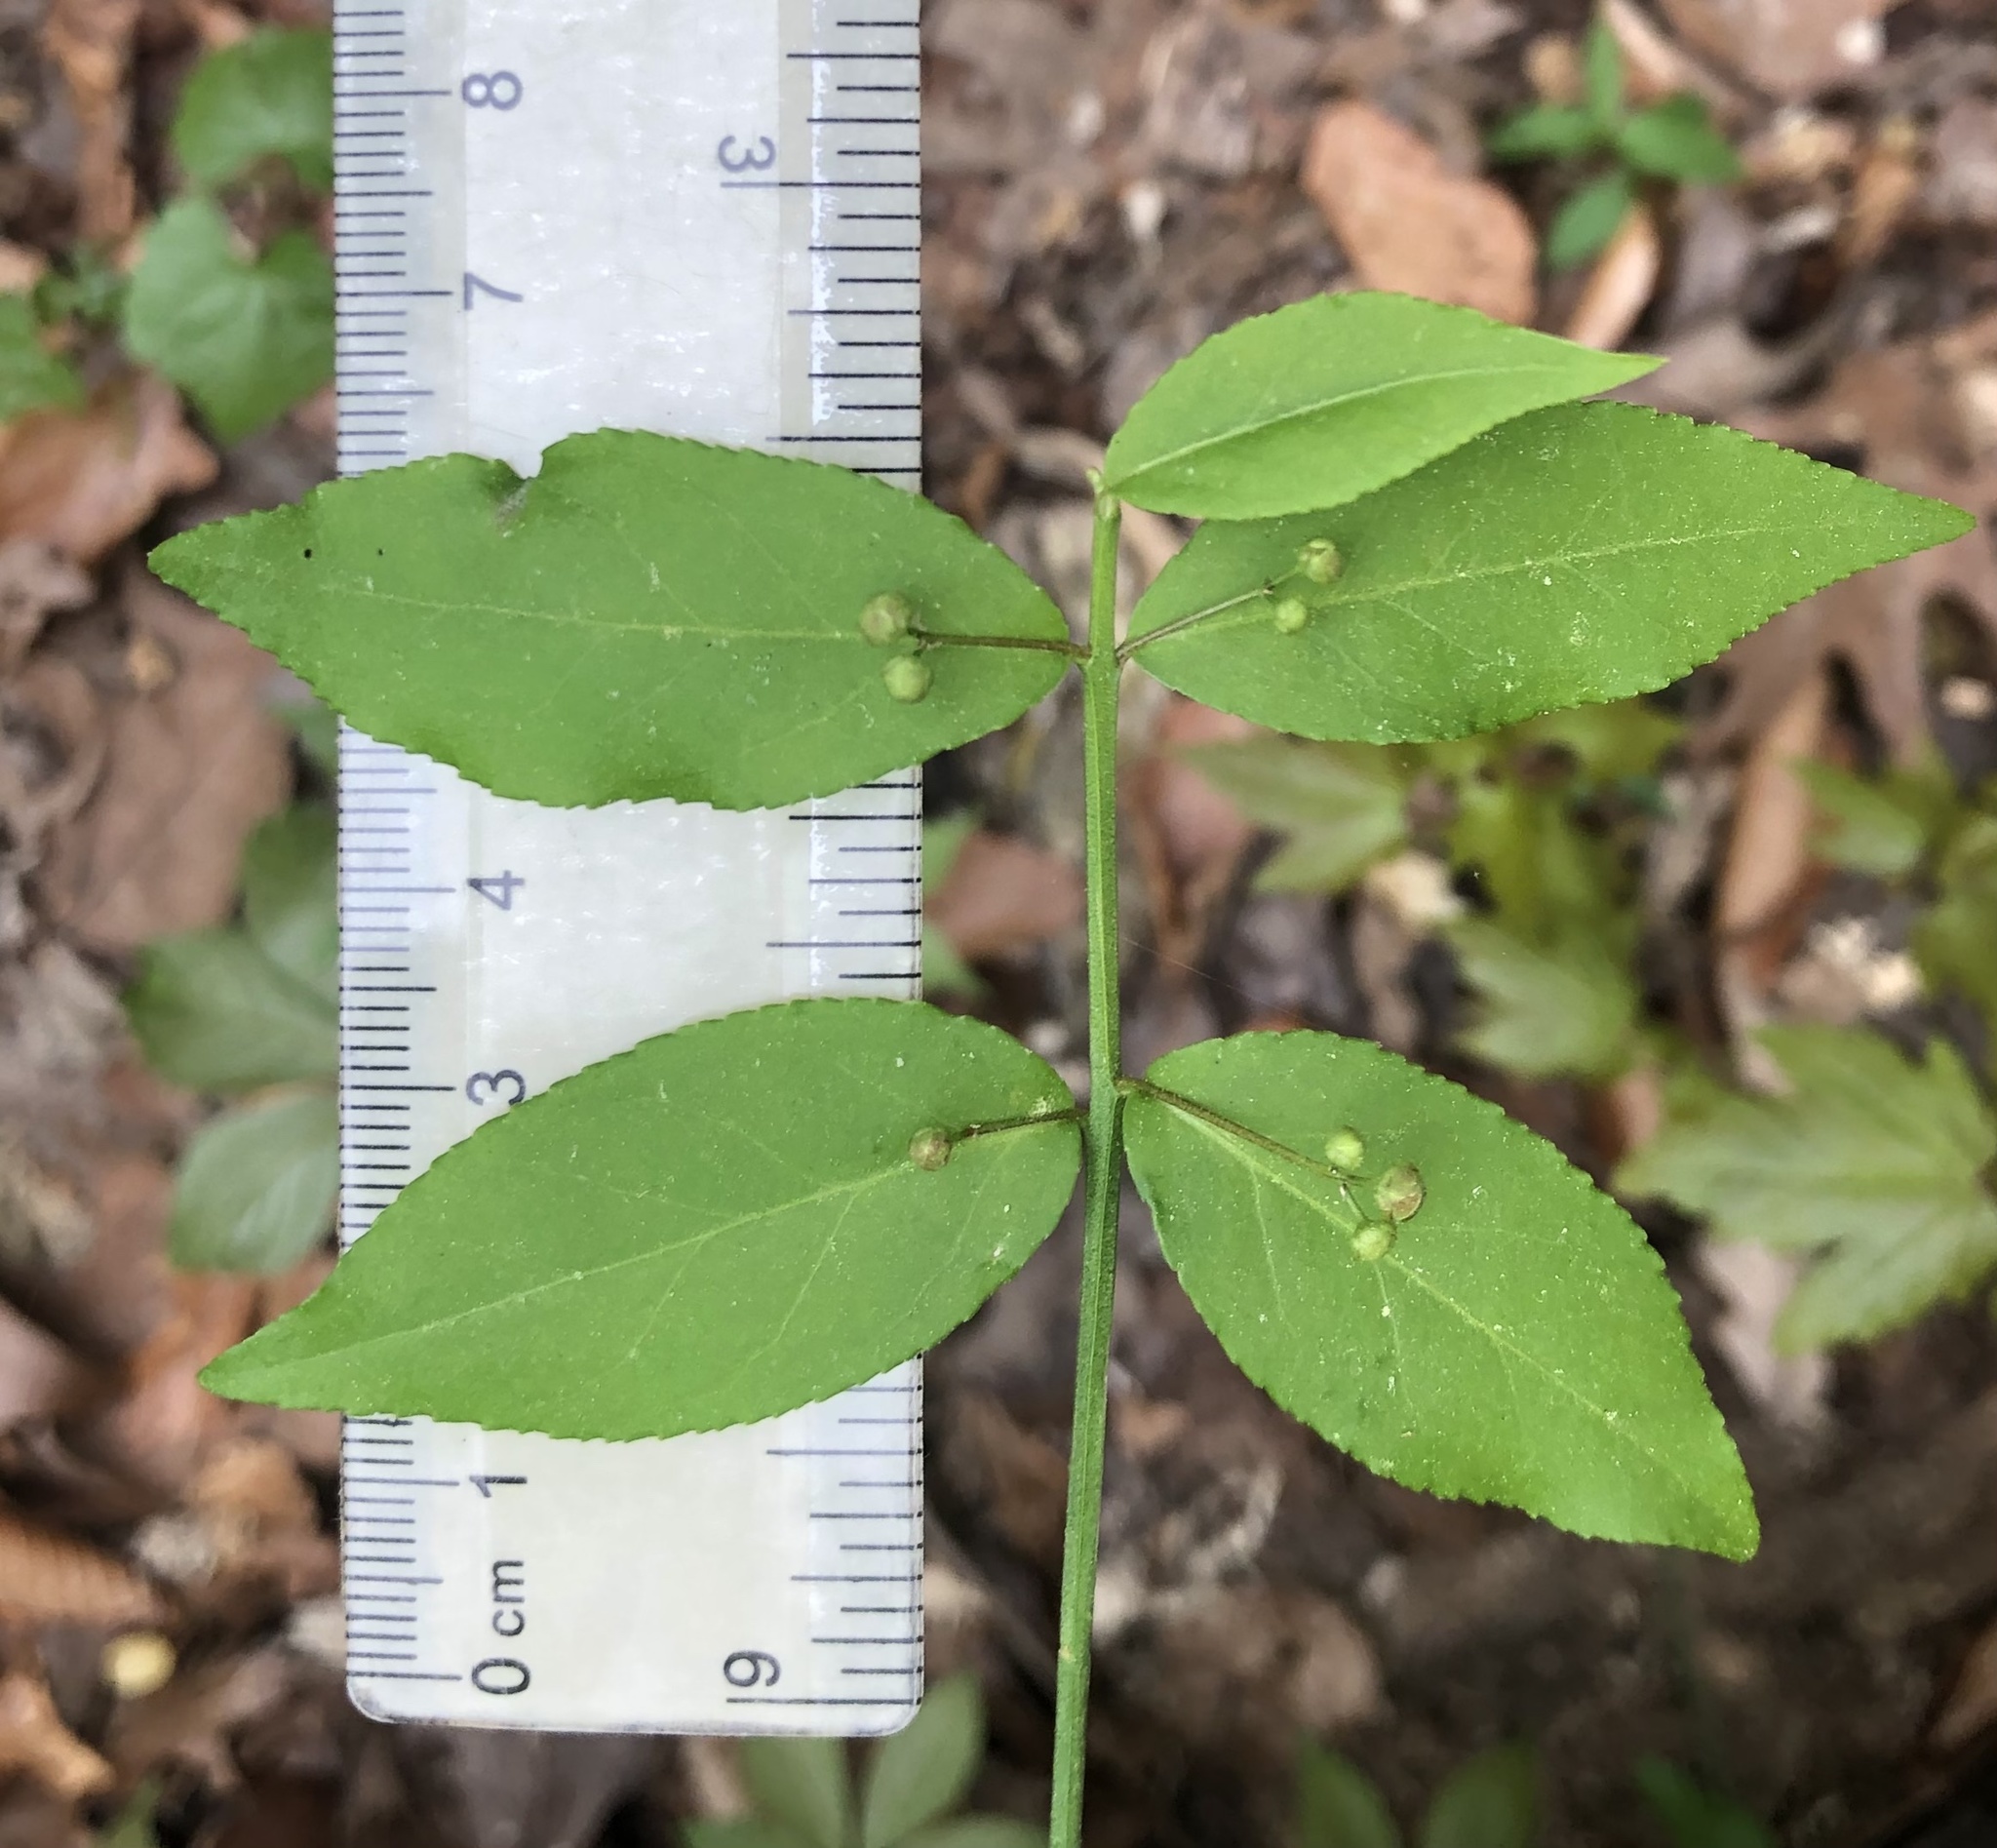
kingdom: Plantae
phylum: Tracheophyta
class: Magnoliopsida
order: Celastrales
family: Celastraceae
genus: Euonymus
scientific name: Euonymus americanus
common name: Bursting-heart
